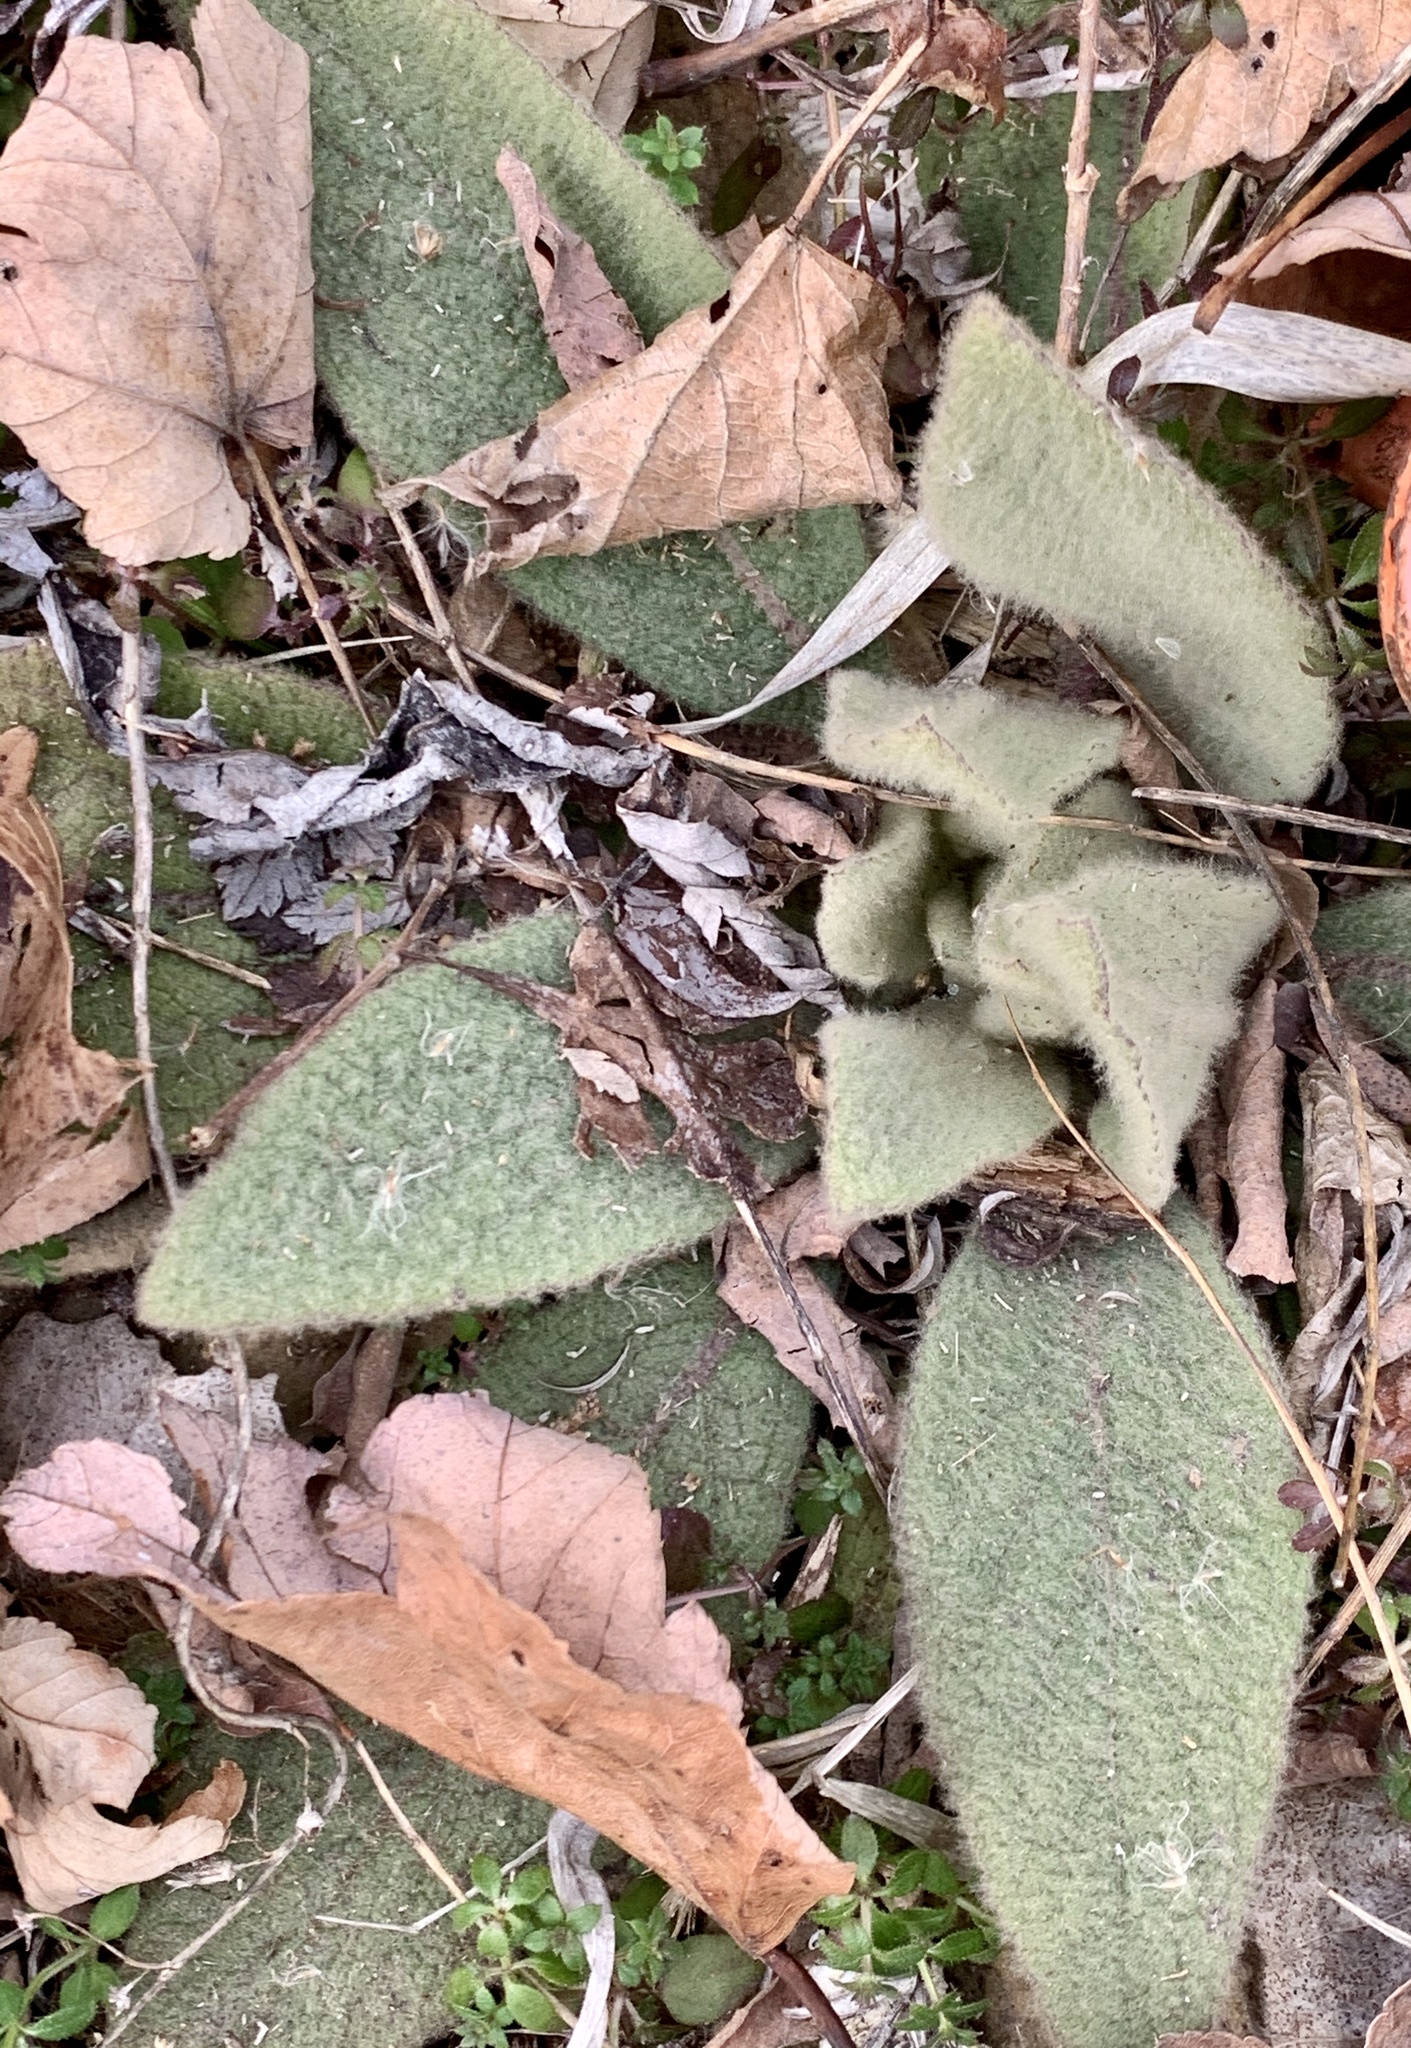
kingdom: Plantae
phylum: Tracheophyta
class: Magnoliopsida
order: Lamiales
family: Scrophulariaceae
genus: Verbascum
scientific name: Verbascum thapsus
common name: Common mullein
